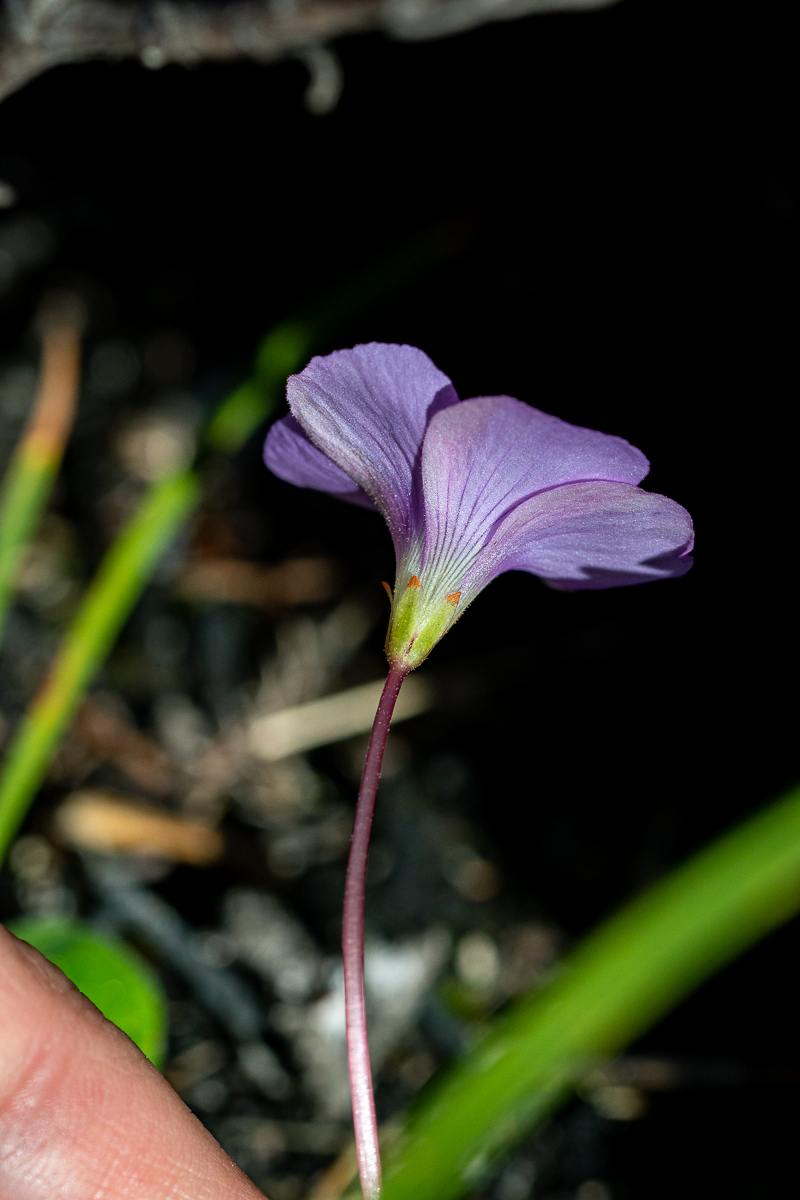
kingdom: Plantae
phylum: Tracheophyta
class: Magnoliopsida
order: Oxalidales
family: Oxalidaceae
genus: Oxalis
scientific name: Oxalis commutata
